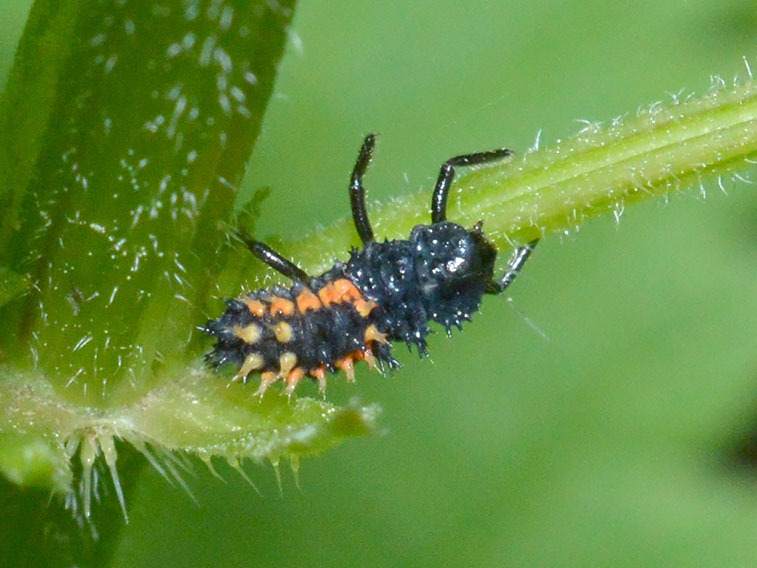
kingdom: Animalia
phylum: Arthropoda
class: Insecta
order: Coleoptera
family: Coccinellidae
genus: Harmonia
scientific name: Harmonia axyridis
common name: Harlequin ladybird
